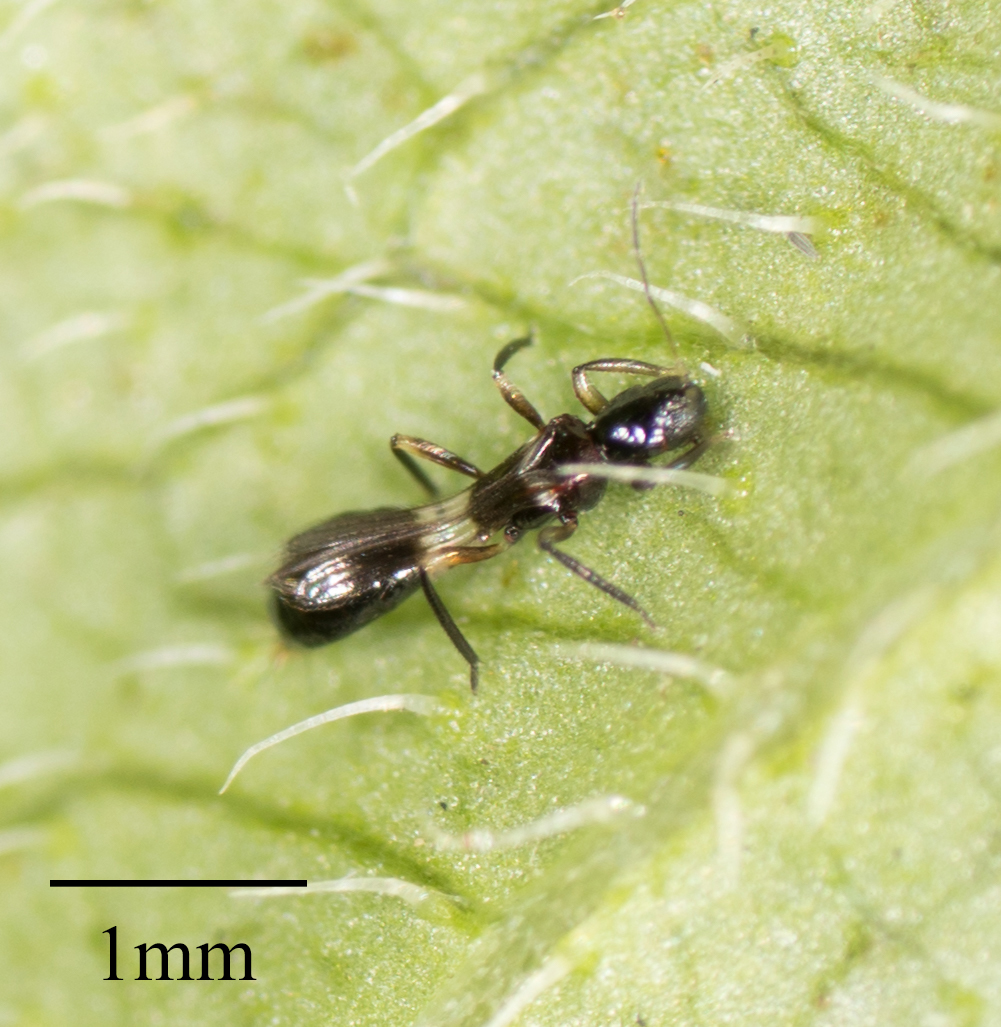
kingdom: Animalia
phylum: Arthropoda
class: Insecta
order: Thysanoptera
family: Aeolothripidae
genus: Franklinothrips
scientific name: Franklinothrips vespiformis
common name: Banded thrip
